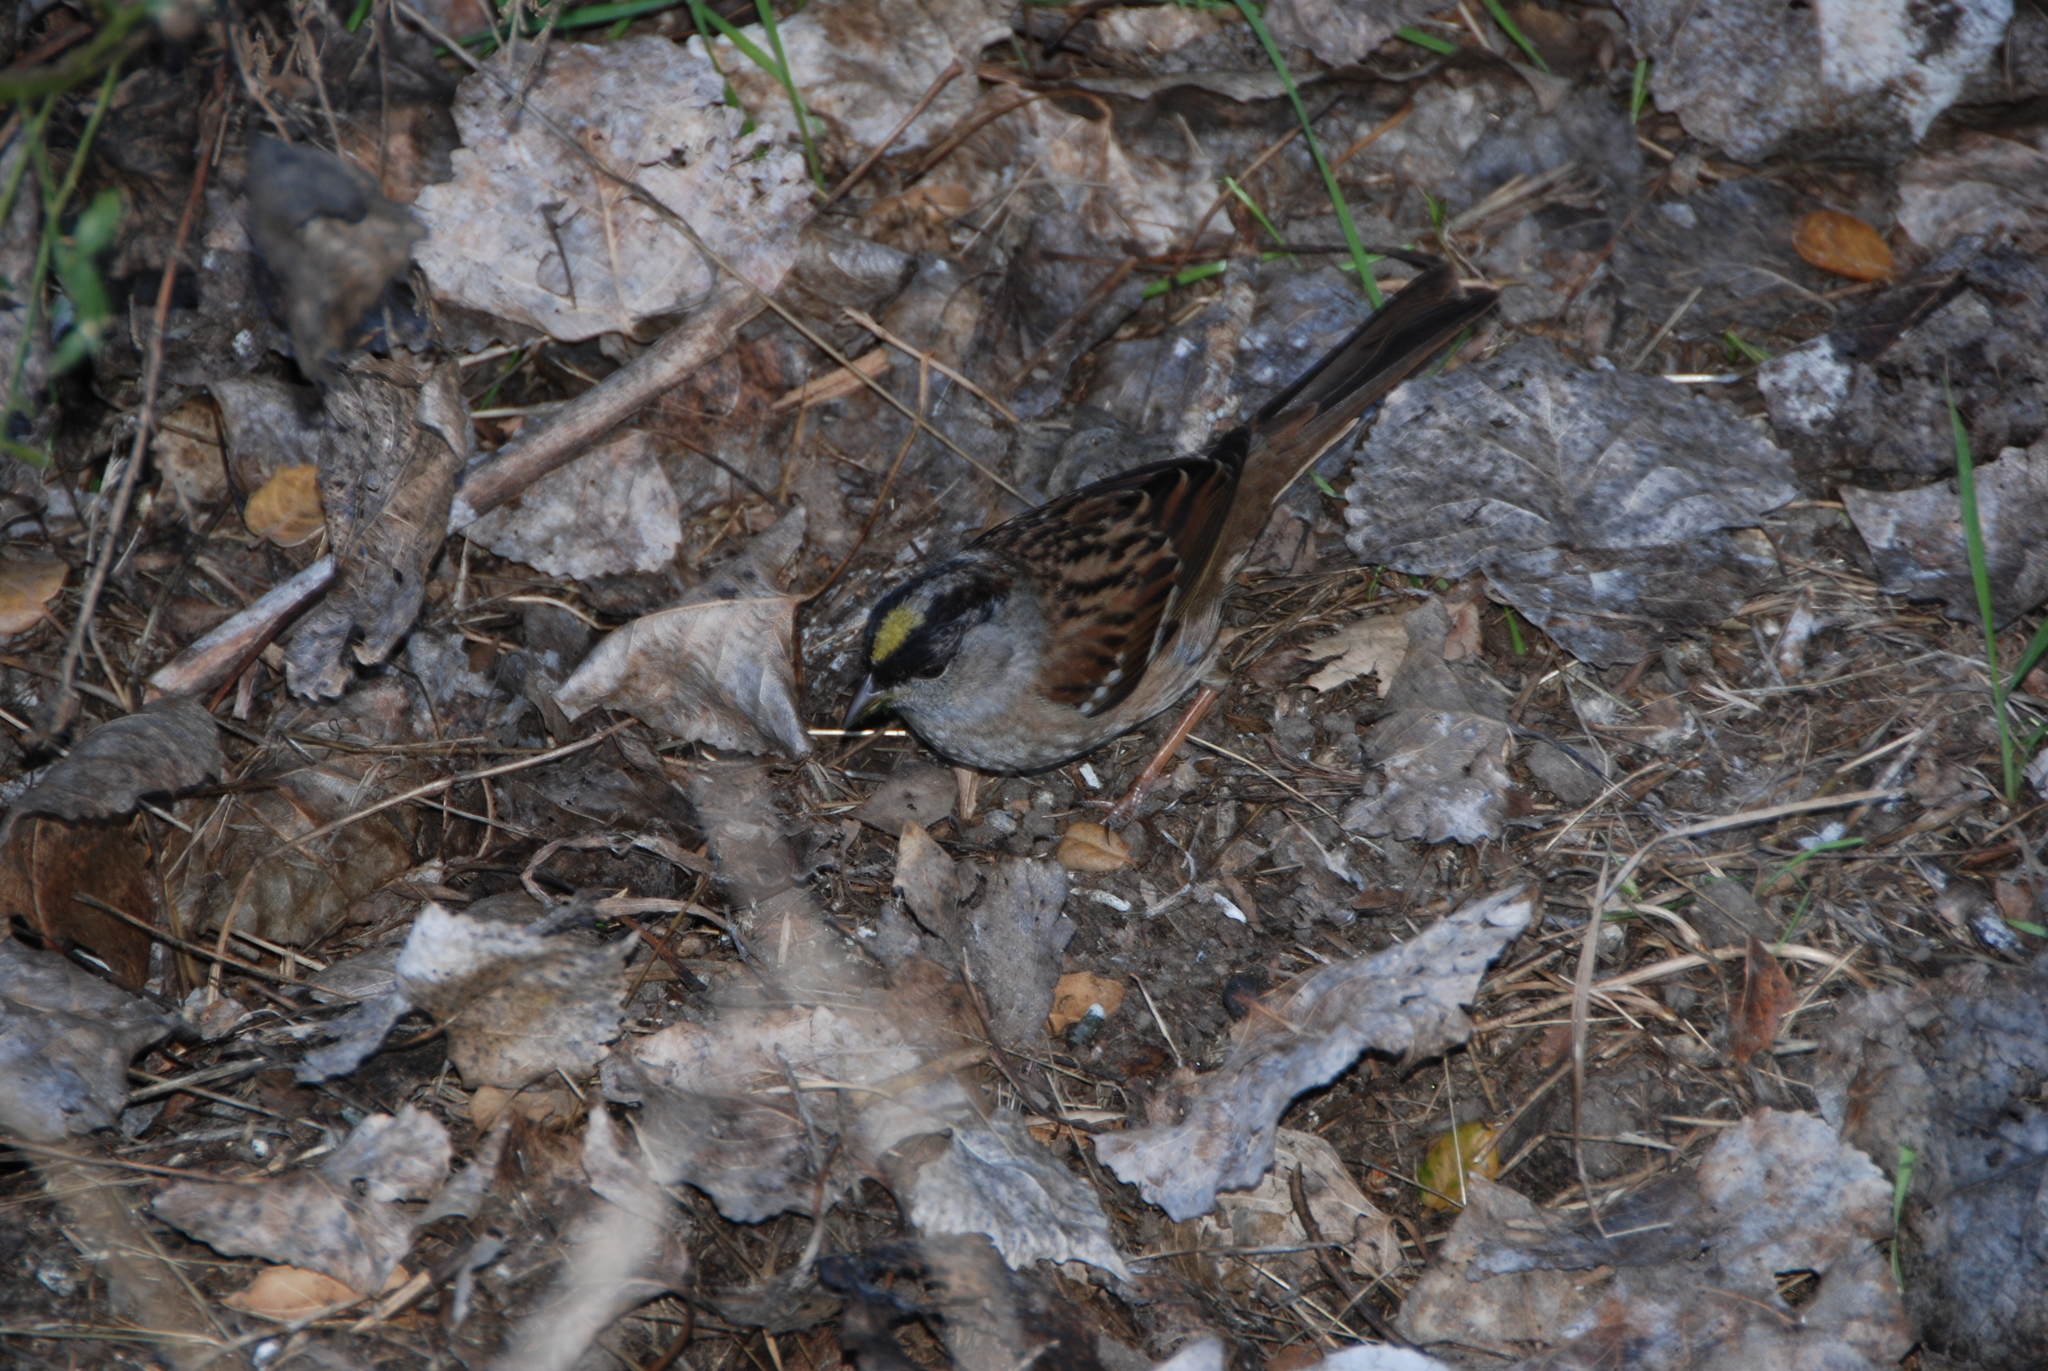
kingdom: Animalia
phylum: Chordata
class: Aves
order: Passeriformes
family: Passerellidae
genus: Zonotrichia
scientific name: Zonotrichia atricapilla
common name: Golden-crowned sparrow
